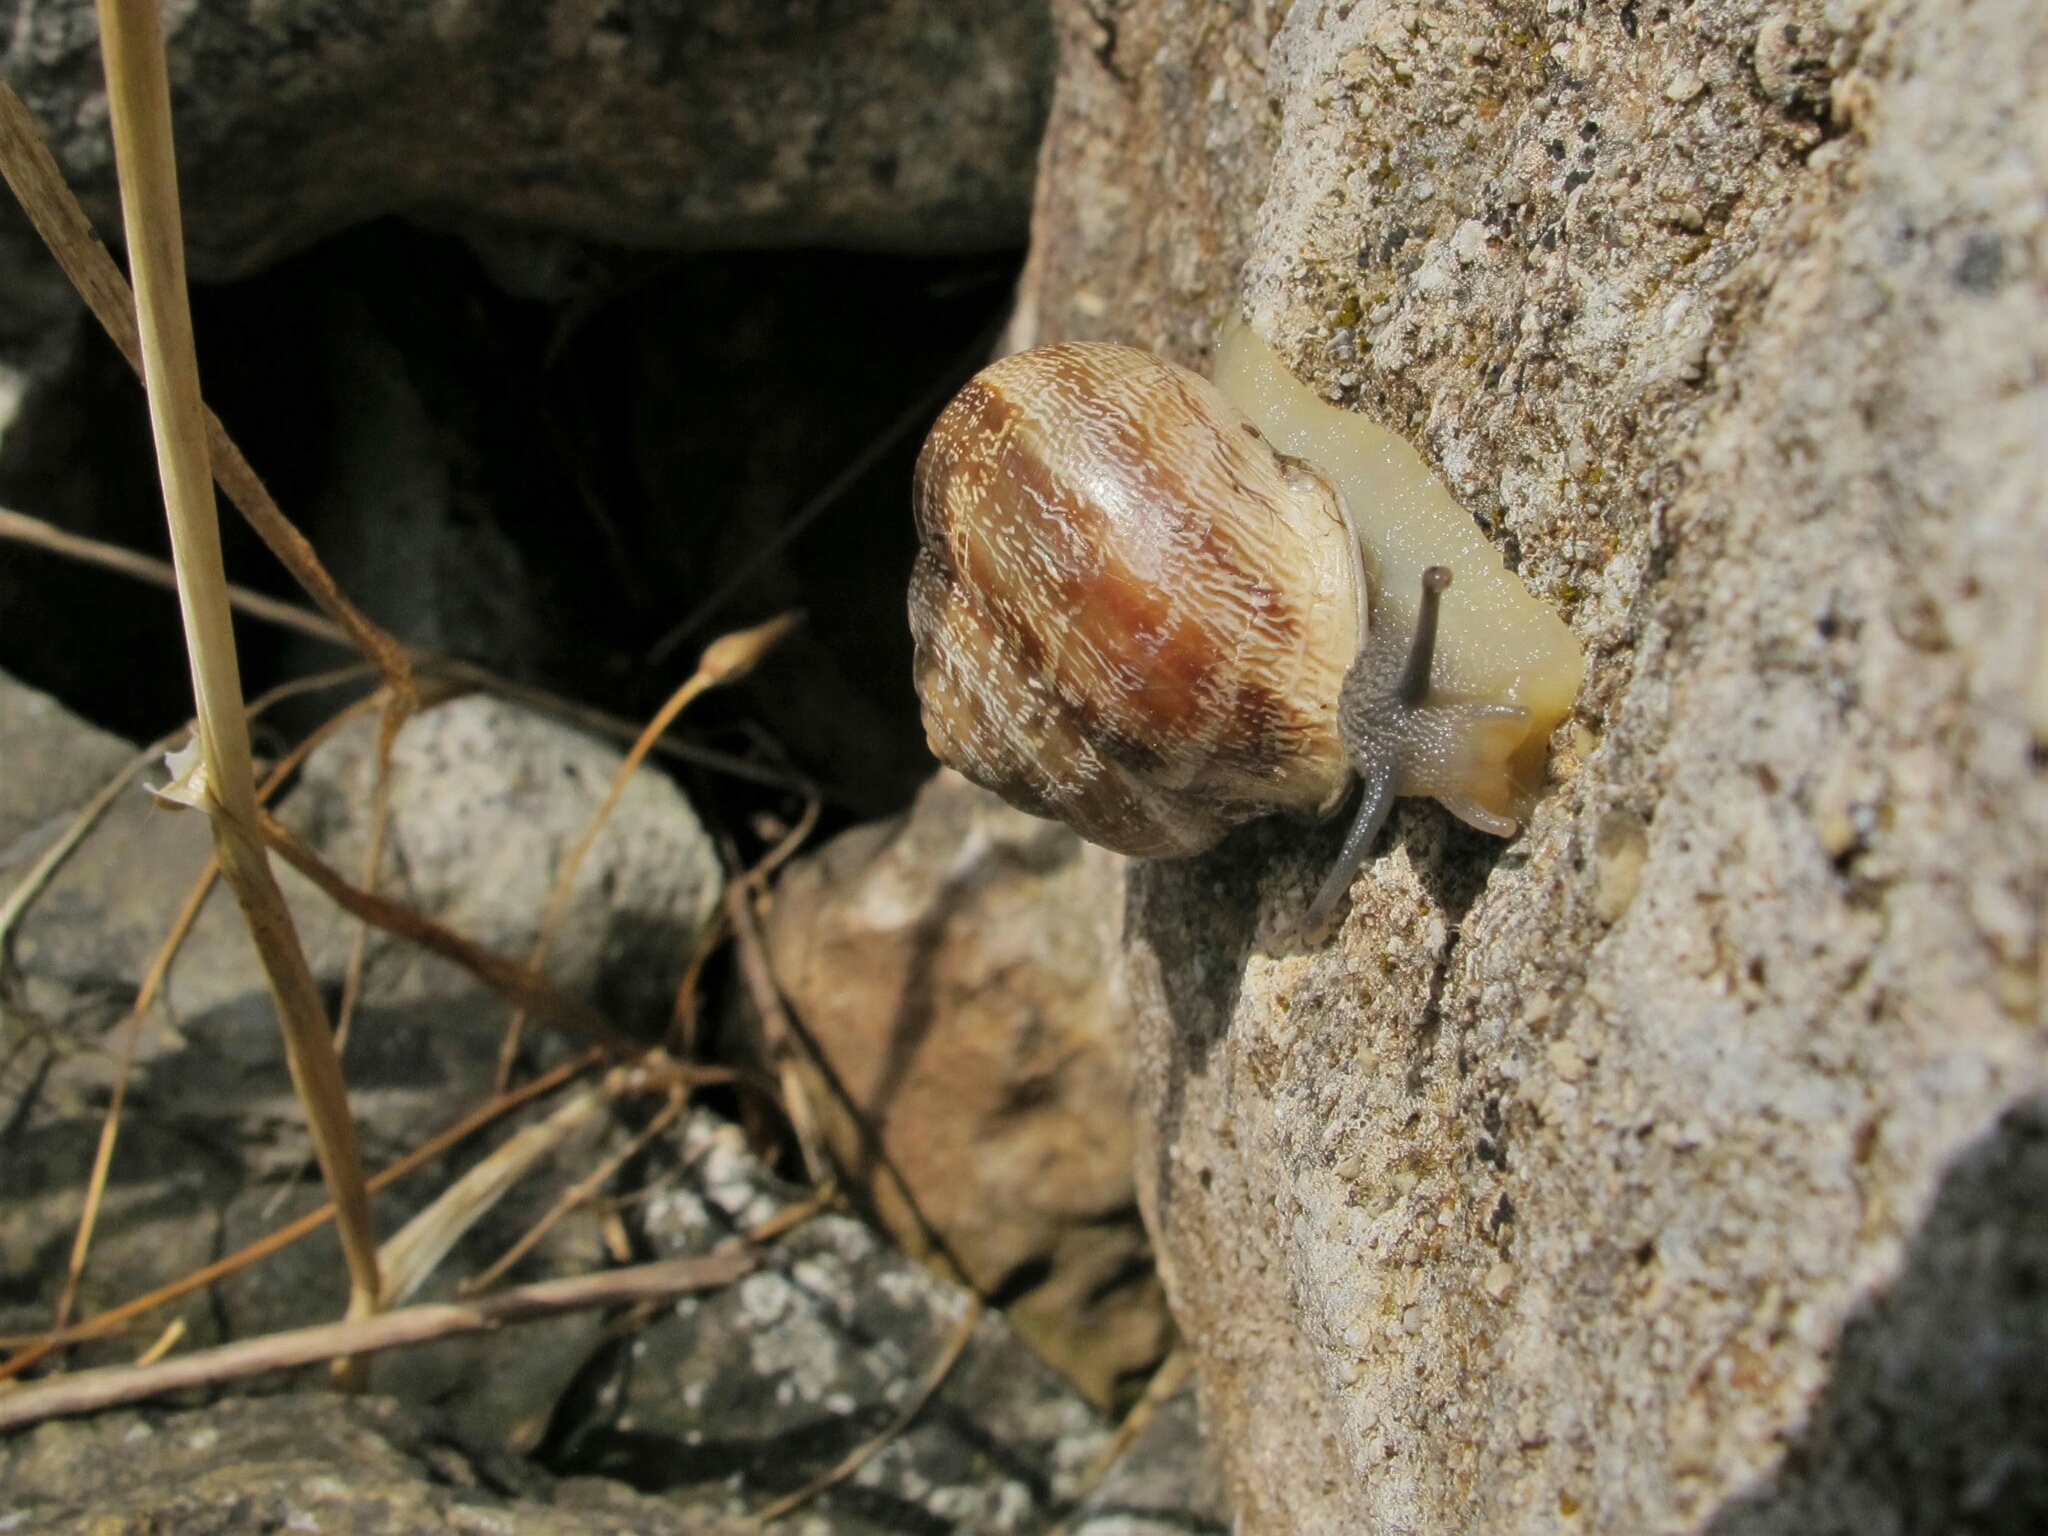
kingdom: Animalia
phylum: Mollusca
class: Gastropoda
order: Stylommatophora
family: Helicidae
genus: Eobania
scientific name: Eobania vermiculata
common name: Chocolateband snail
